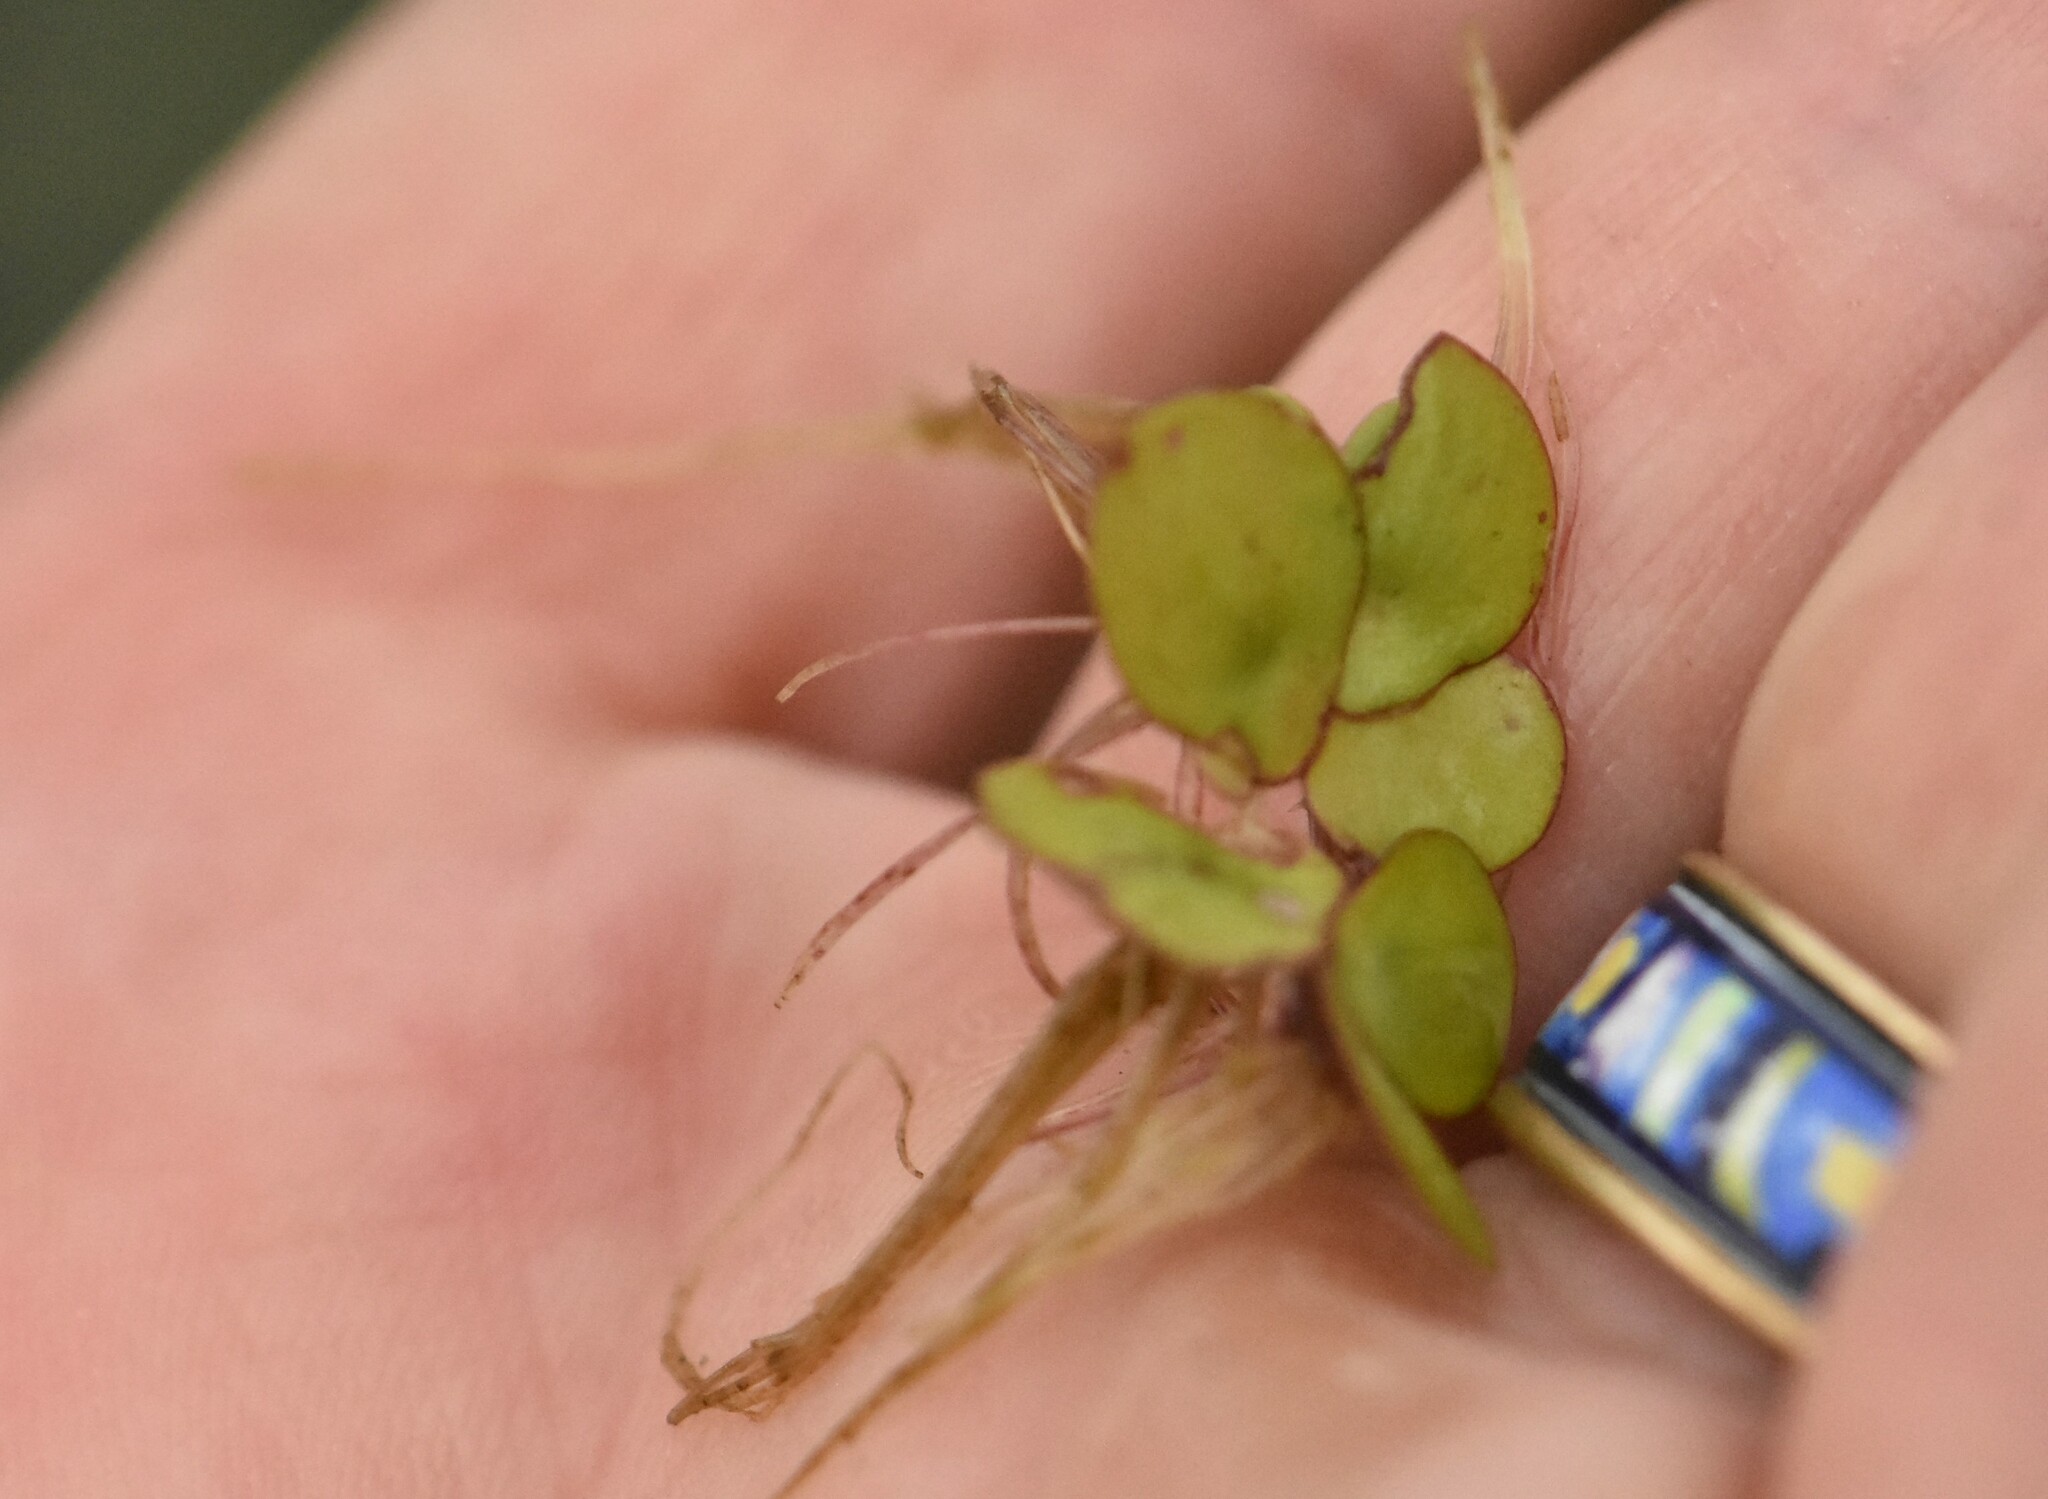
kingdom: Plantae
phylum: Tracheophyta
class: Liliopsida
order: Alismatales
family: Araceae
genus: Spirodela
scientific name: Spirodela polyrhiza
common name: Great duckweed
